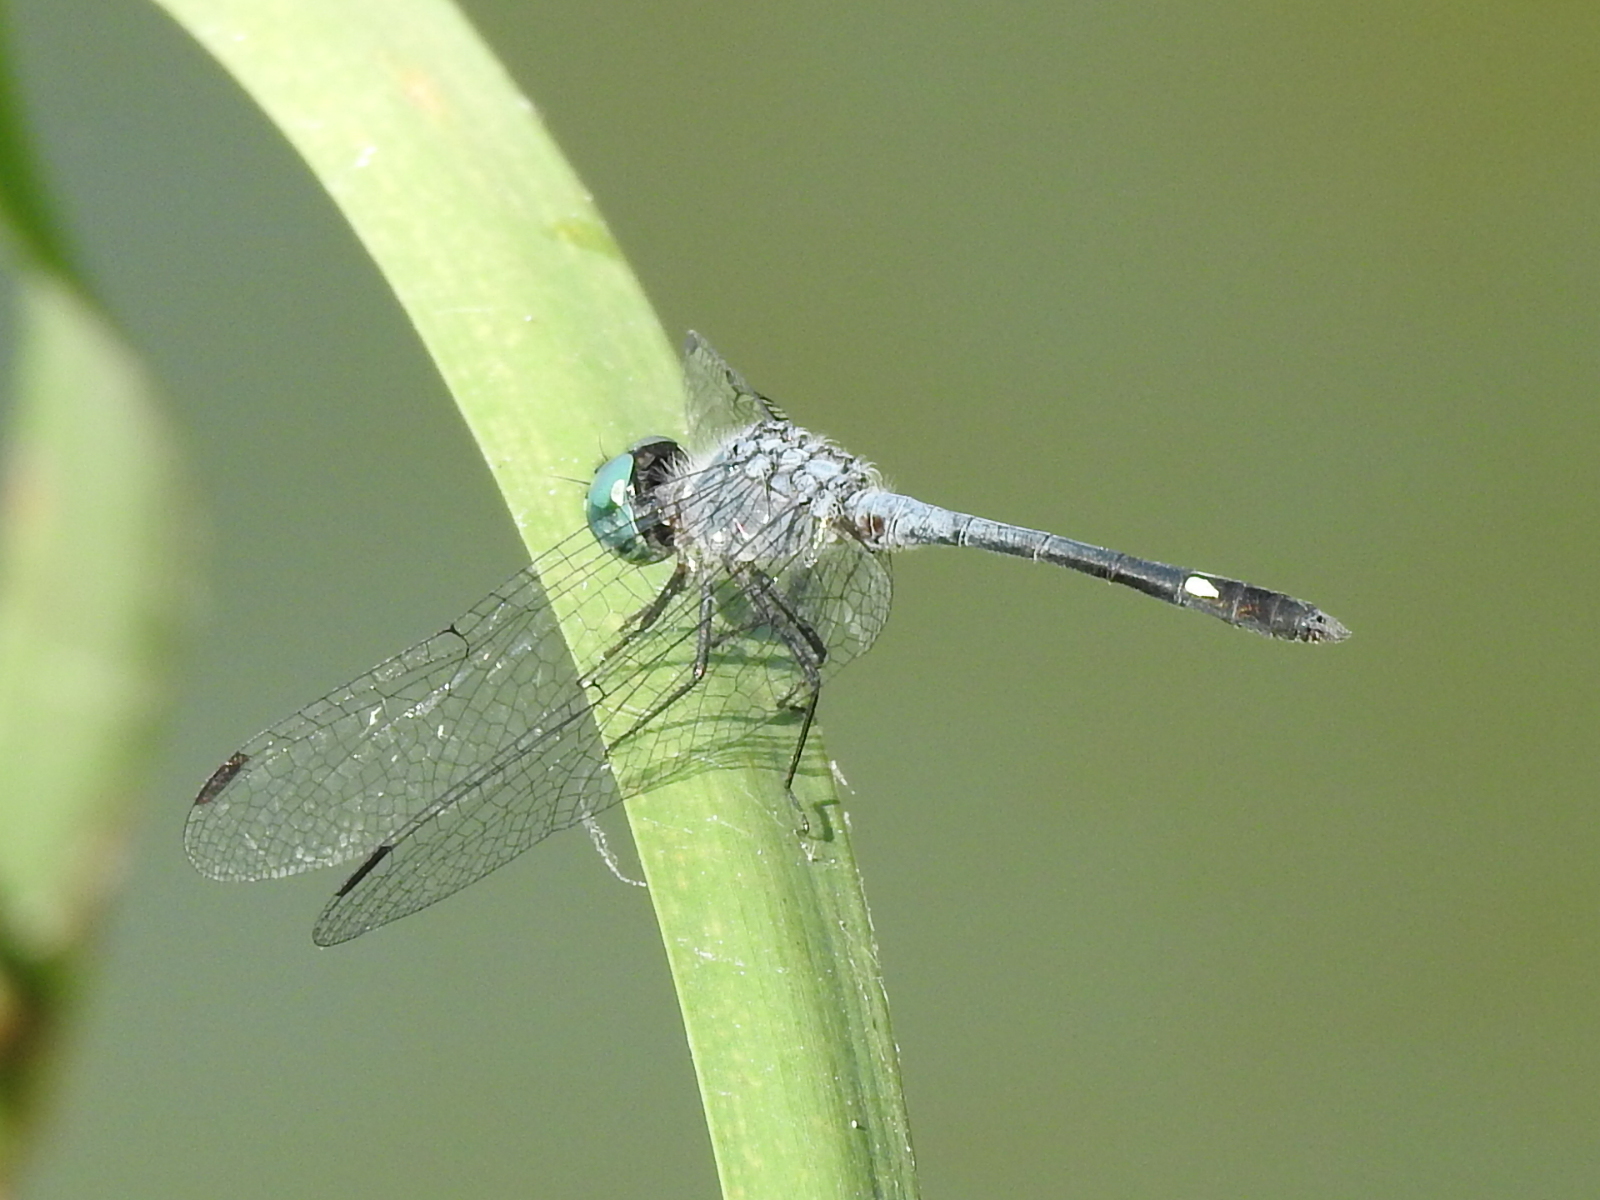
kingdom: Animalia
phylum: Arthropoda
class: Insecta
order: Odonata
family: Libellulidae
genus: Micrathyria
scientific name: Micrathyria aequalis
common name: Spot-tailed dasher
